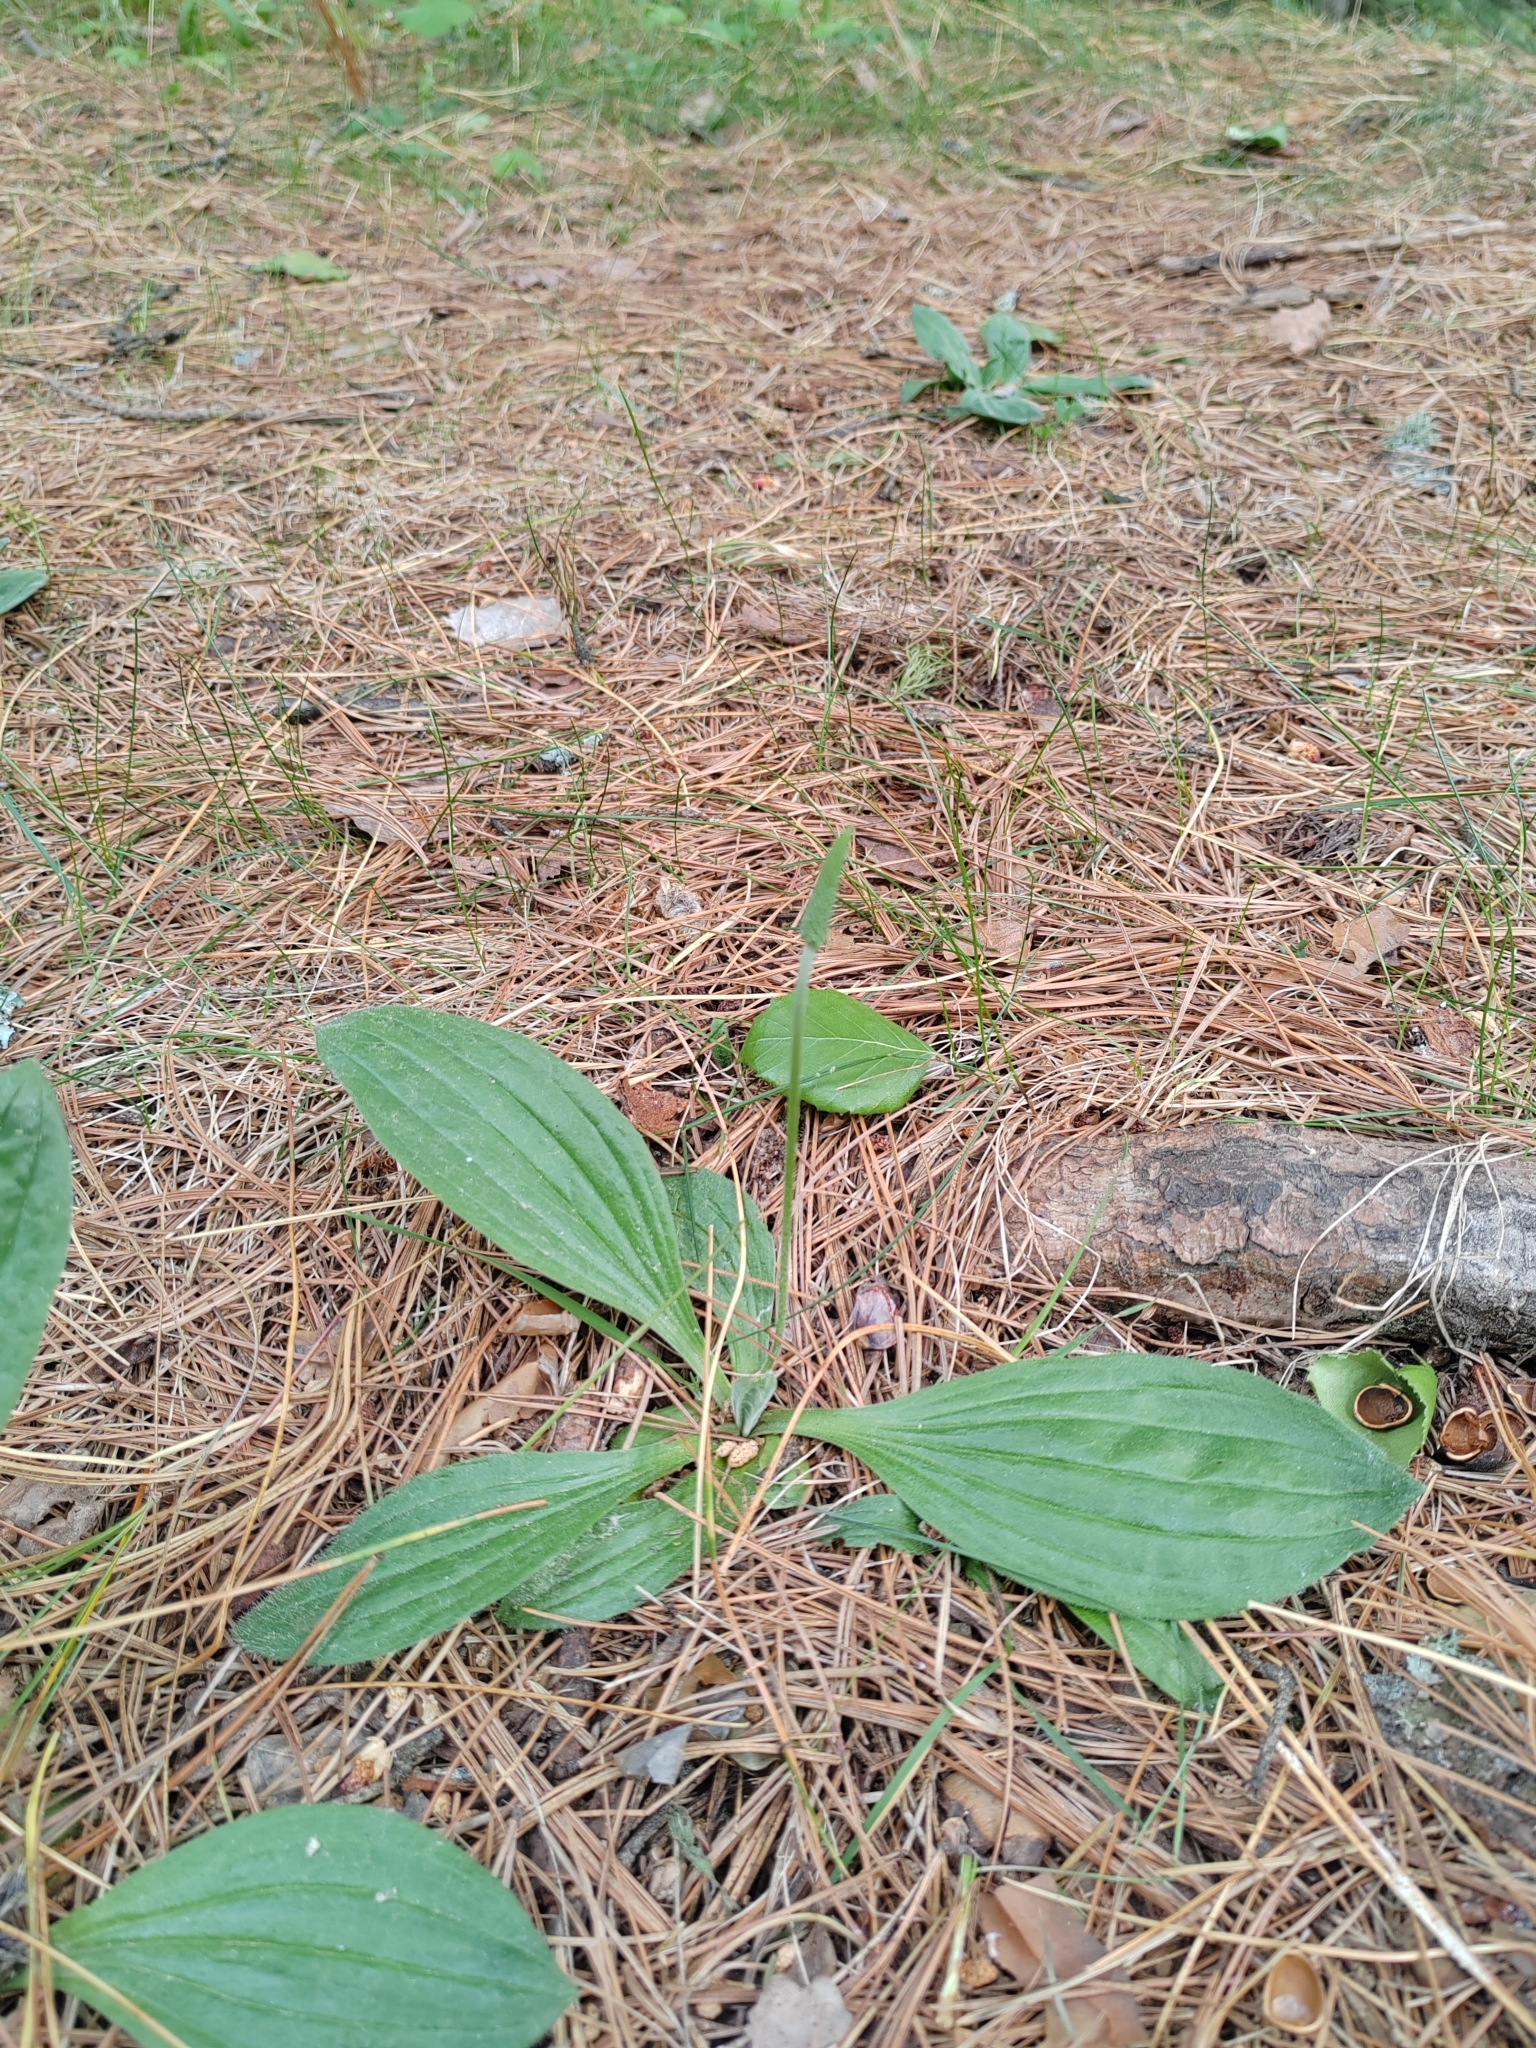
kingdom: Plantae
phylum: Tracheophyta
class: Magnoliopsida
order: Lamiales
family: Plantaginaceae
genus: Plantago
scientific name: Plantago urvillei
